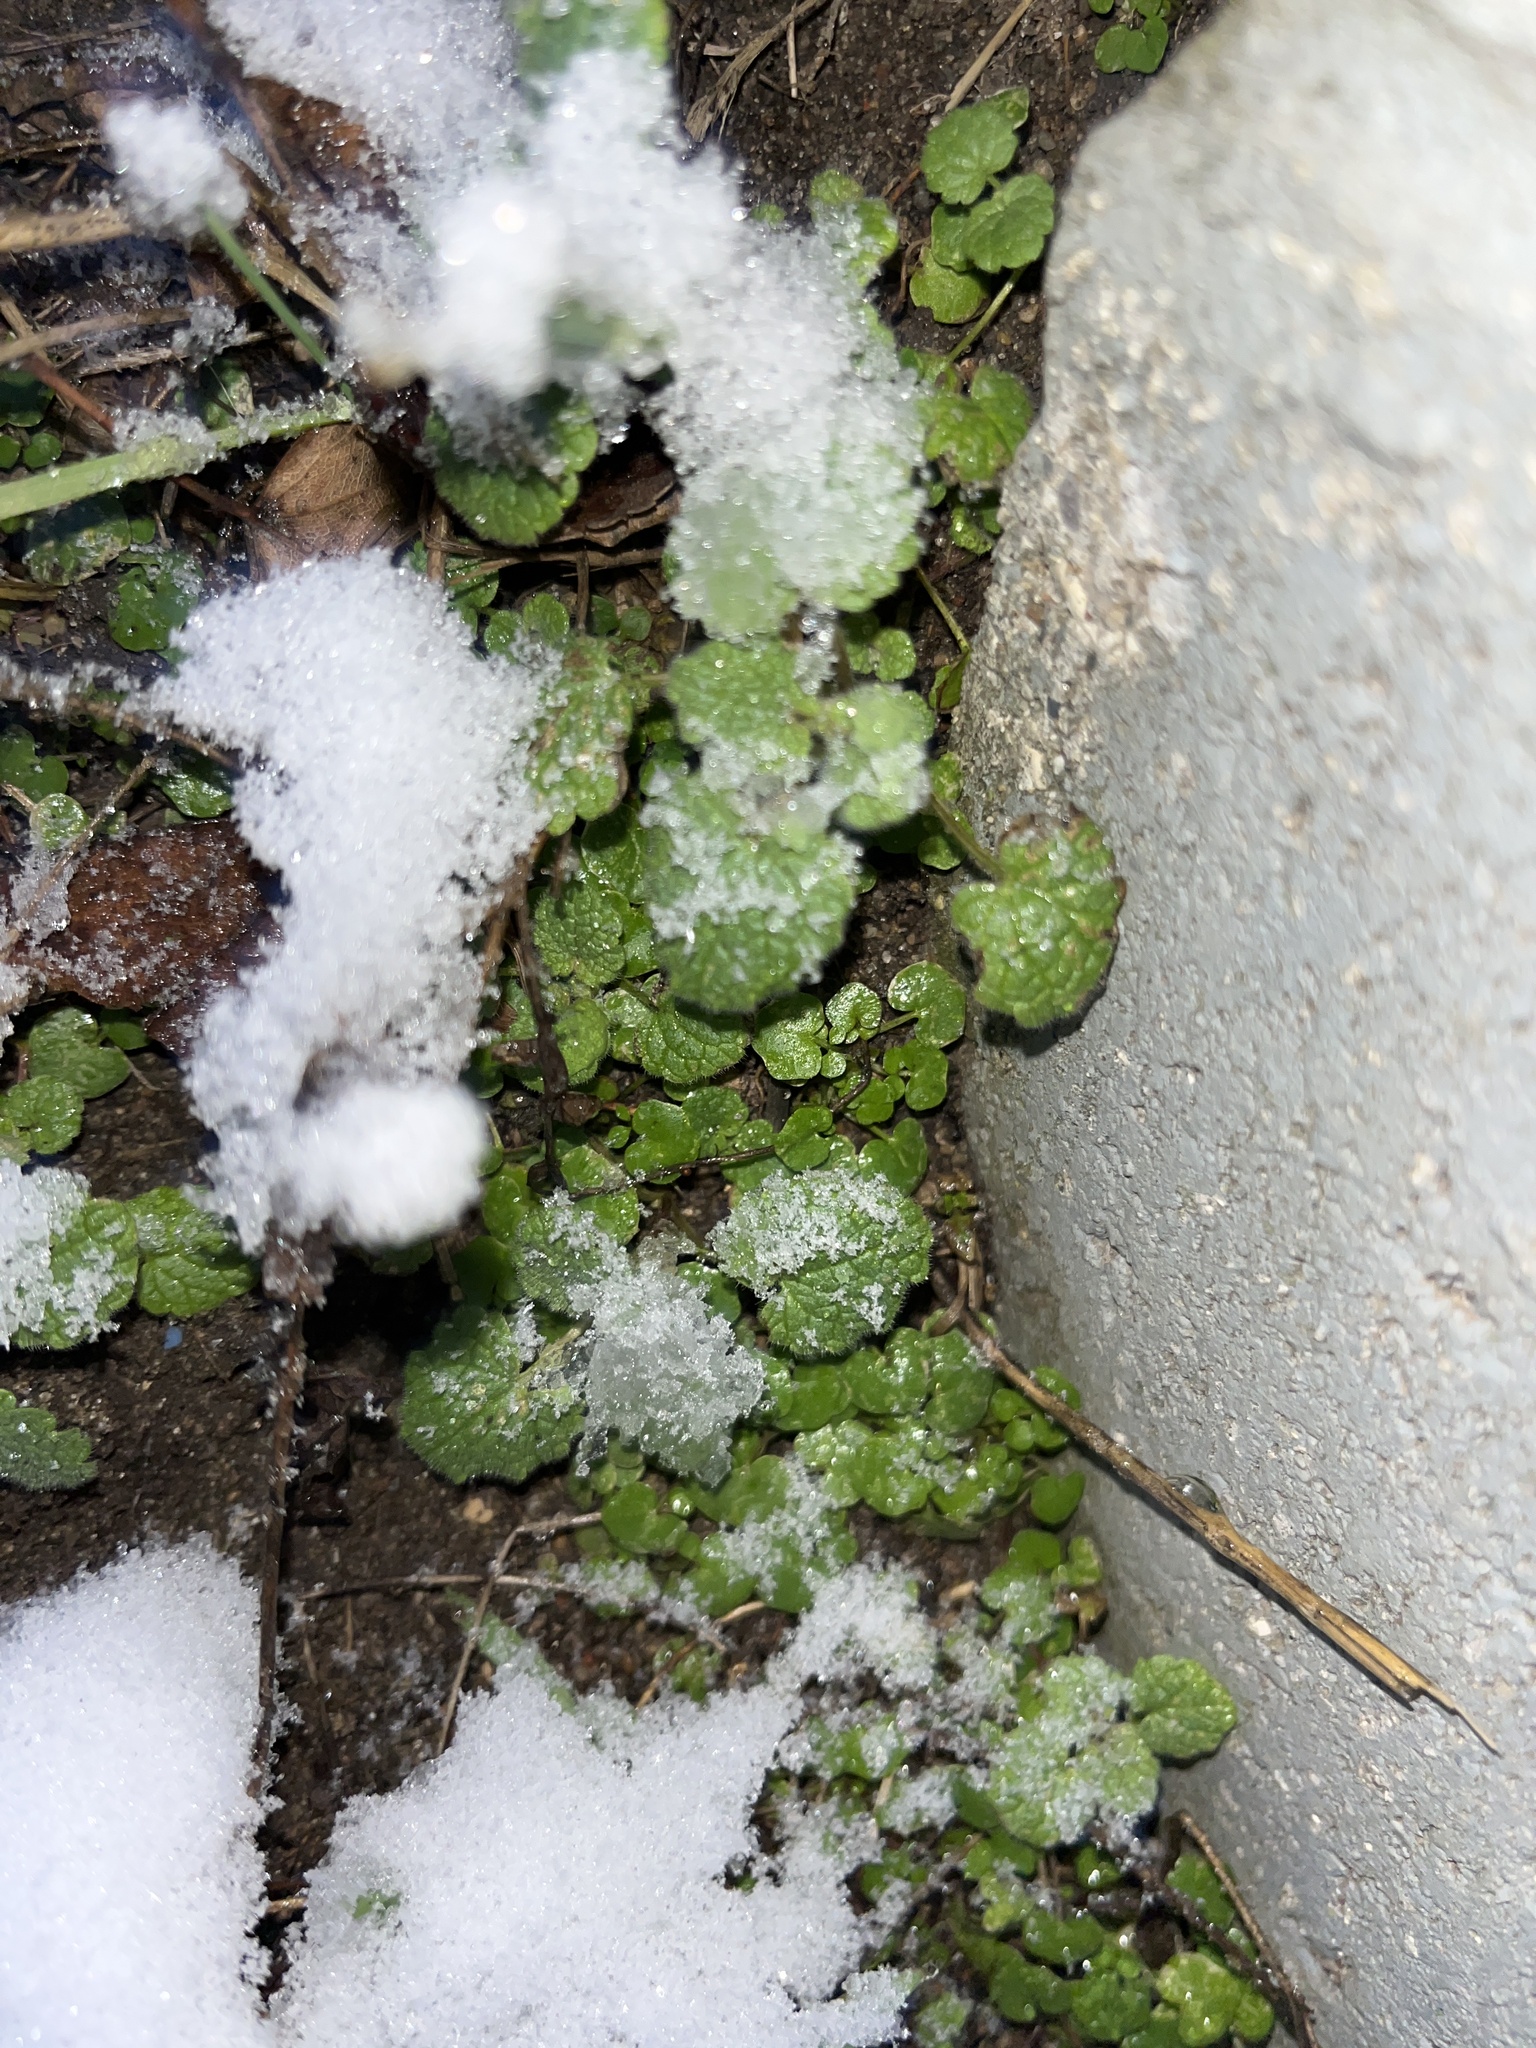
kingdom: Plantae
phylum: Tracheophyta
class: Magnoliopsida
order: Lamiales
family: Lamiaceae
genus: Glechoma
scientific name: Glechoma hederacea
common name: Ground ivy
